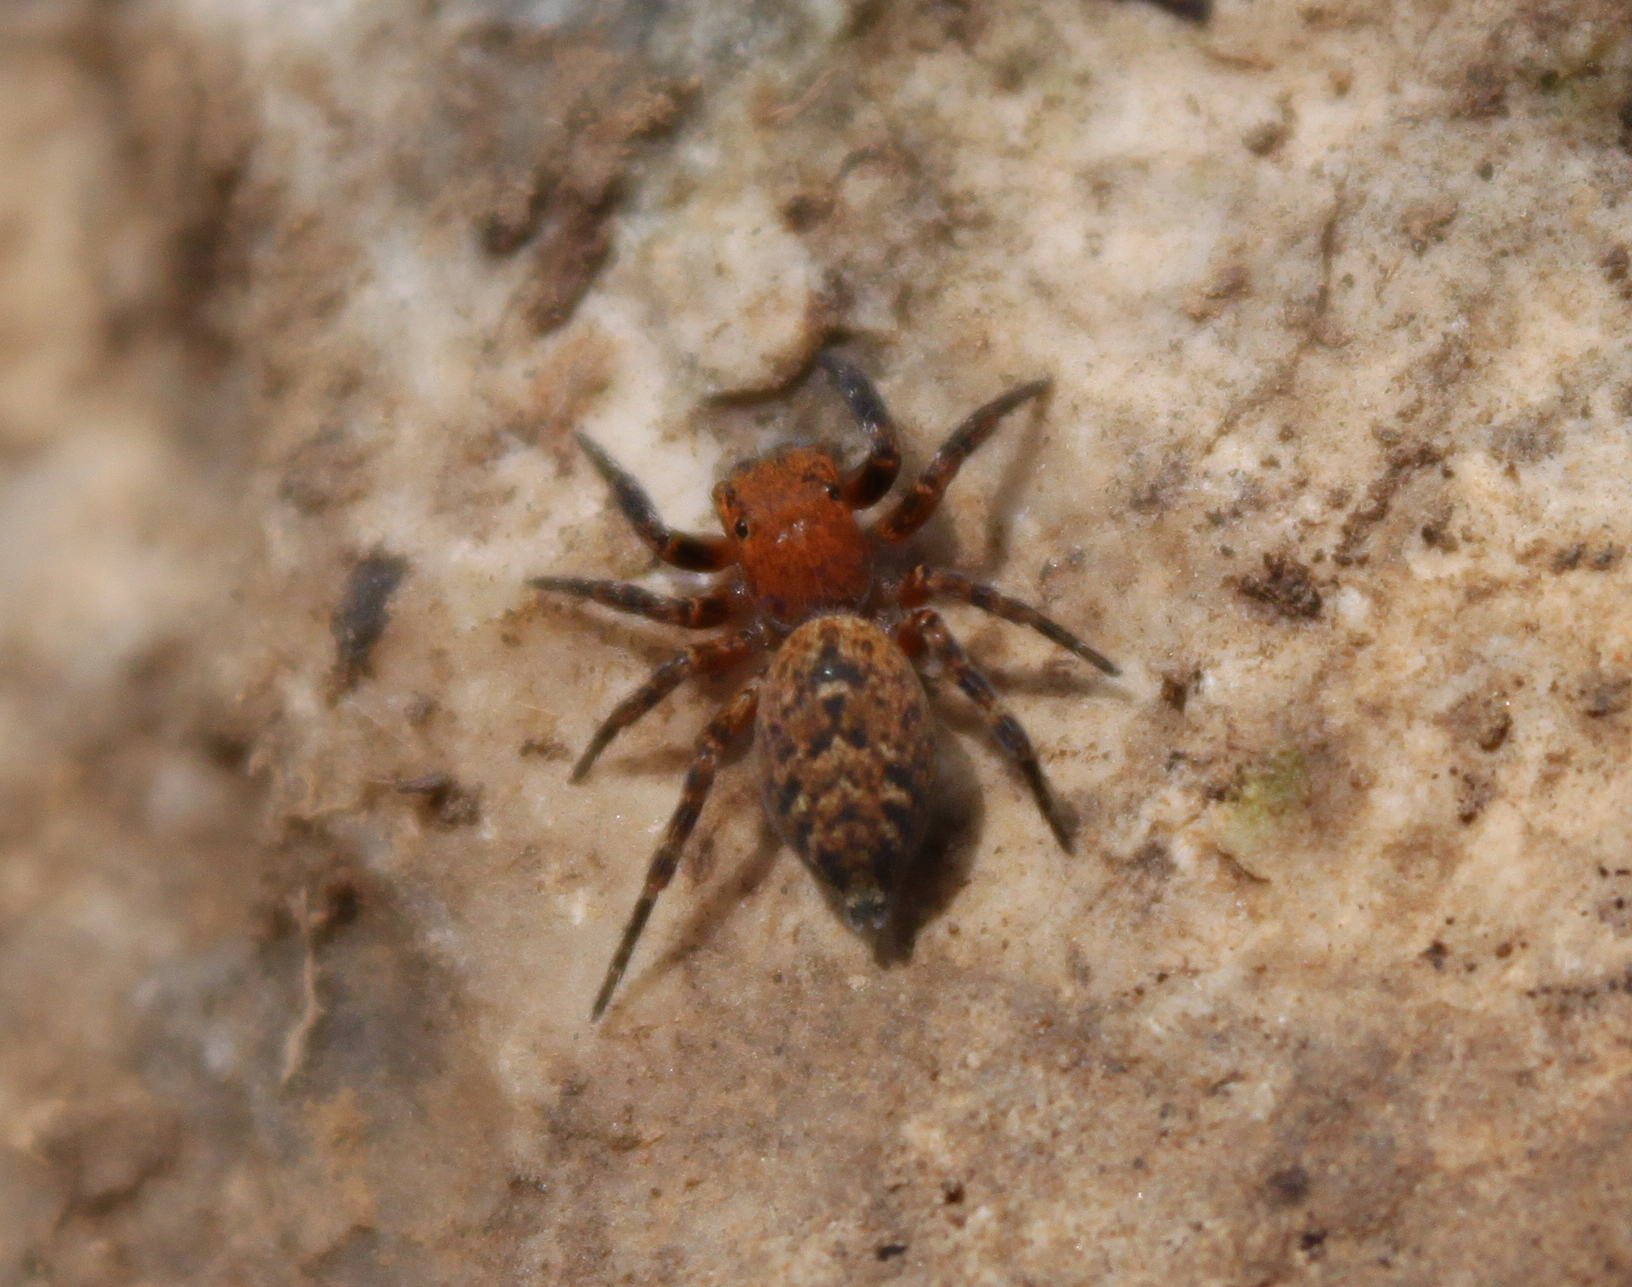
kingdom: Animalia
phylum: Arthropoda
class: Arachnida
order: Araneae
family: Salticidae
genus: Cyrba
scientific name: Cyrba algerina
